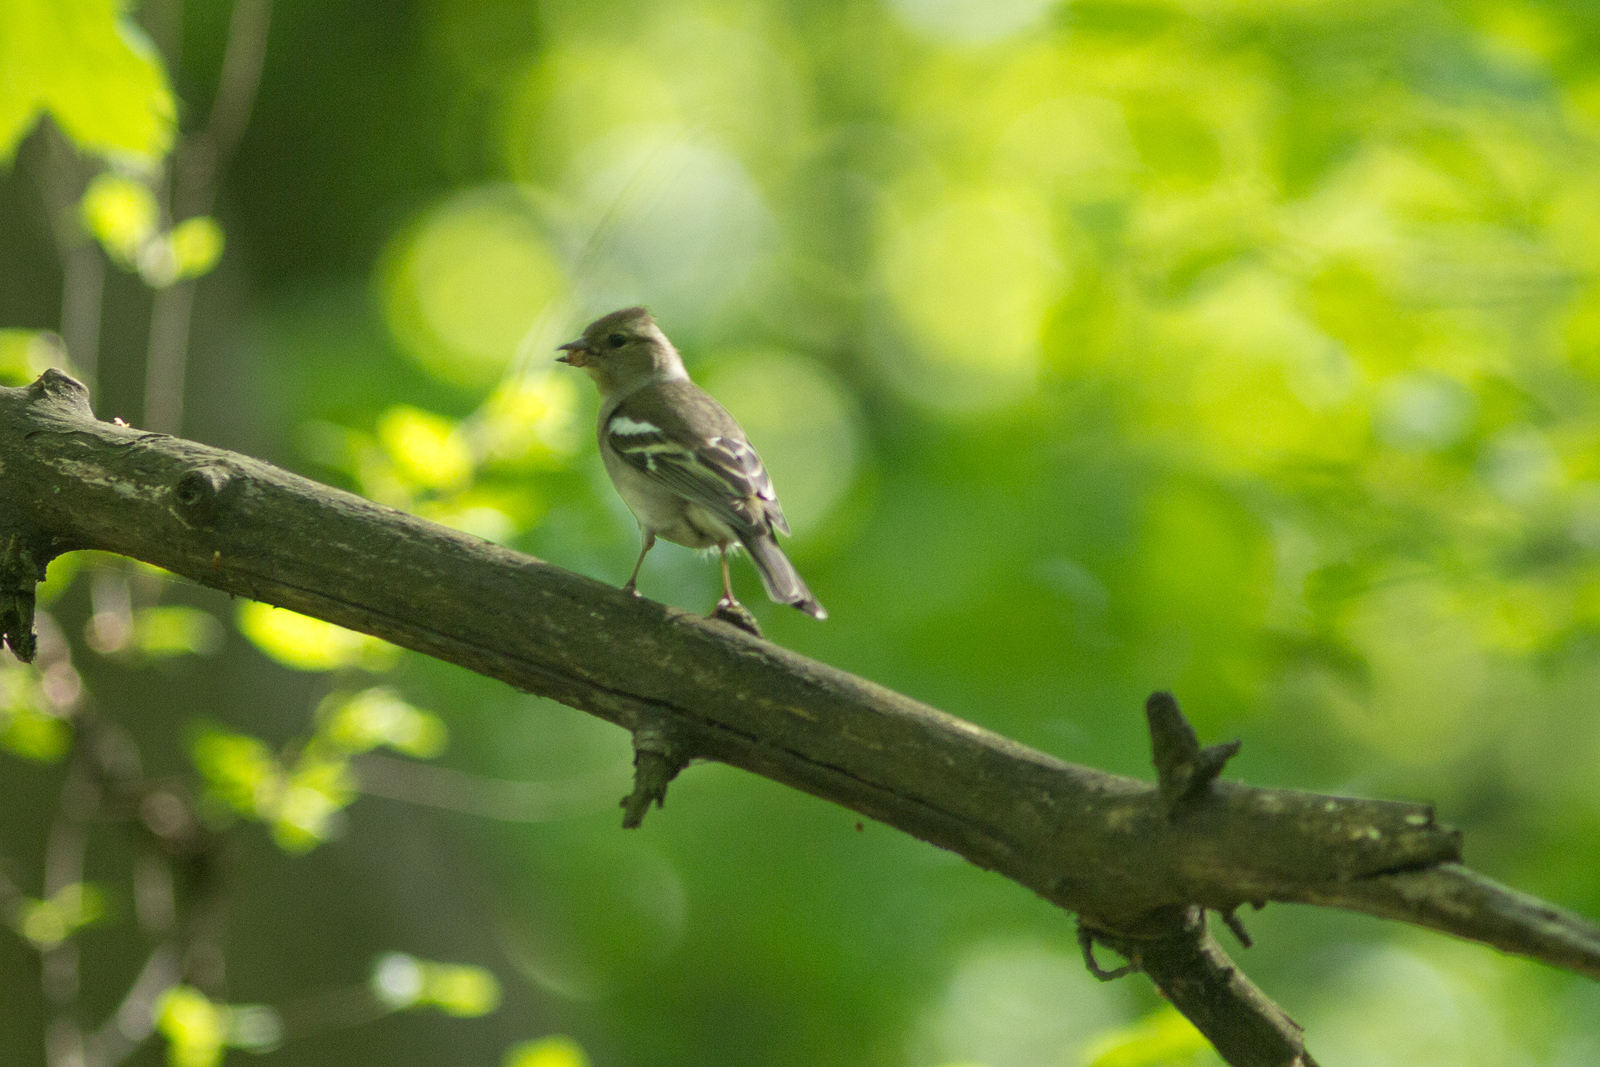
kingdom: Animalia
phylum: Chordata
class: Aves
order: Passeriformes
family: Fringillidae
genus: Fringilla
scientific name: Fringilla coelebs
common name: Common chaffinch
